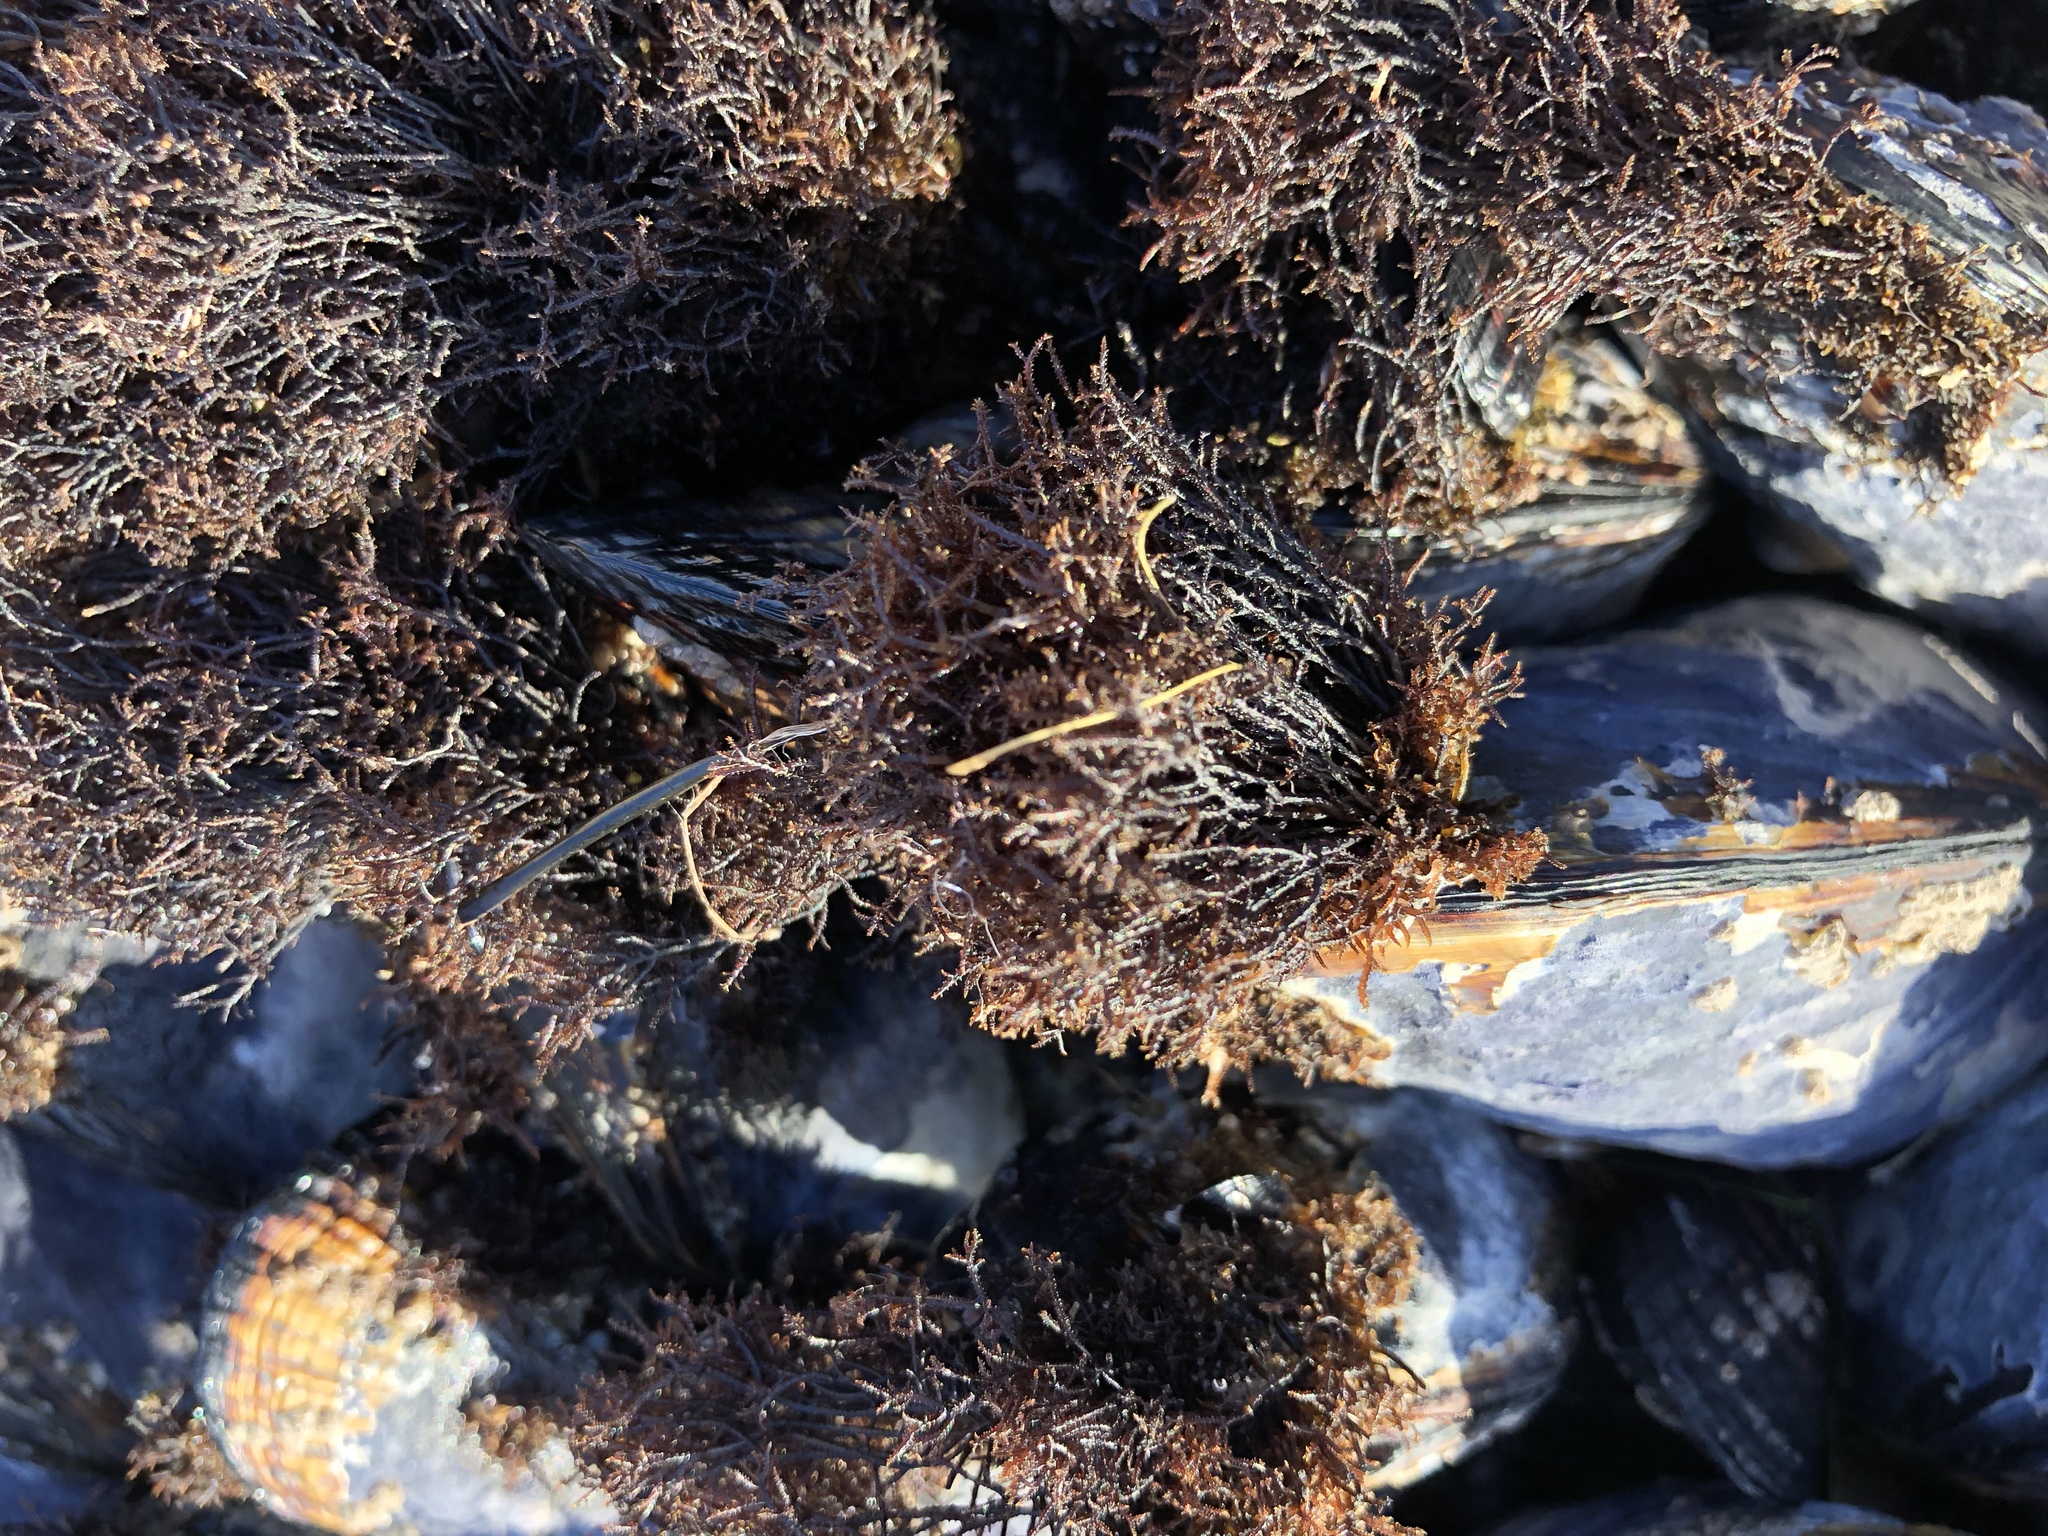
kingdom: Plantae
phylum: Rhodophyta
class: Florideophyceae
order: Gigartinales
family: Endocladiaceae
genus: Endocladia
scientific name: Endocladia muricata
